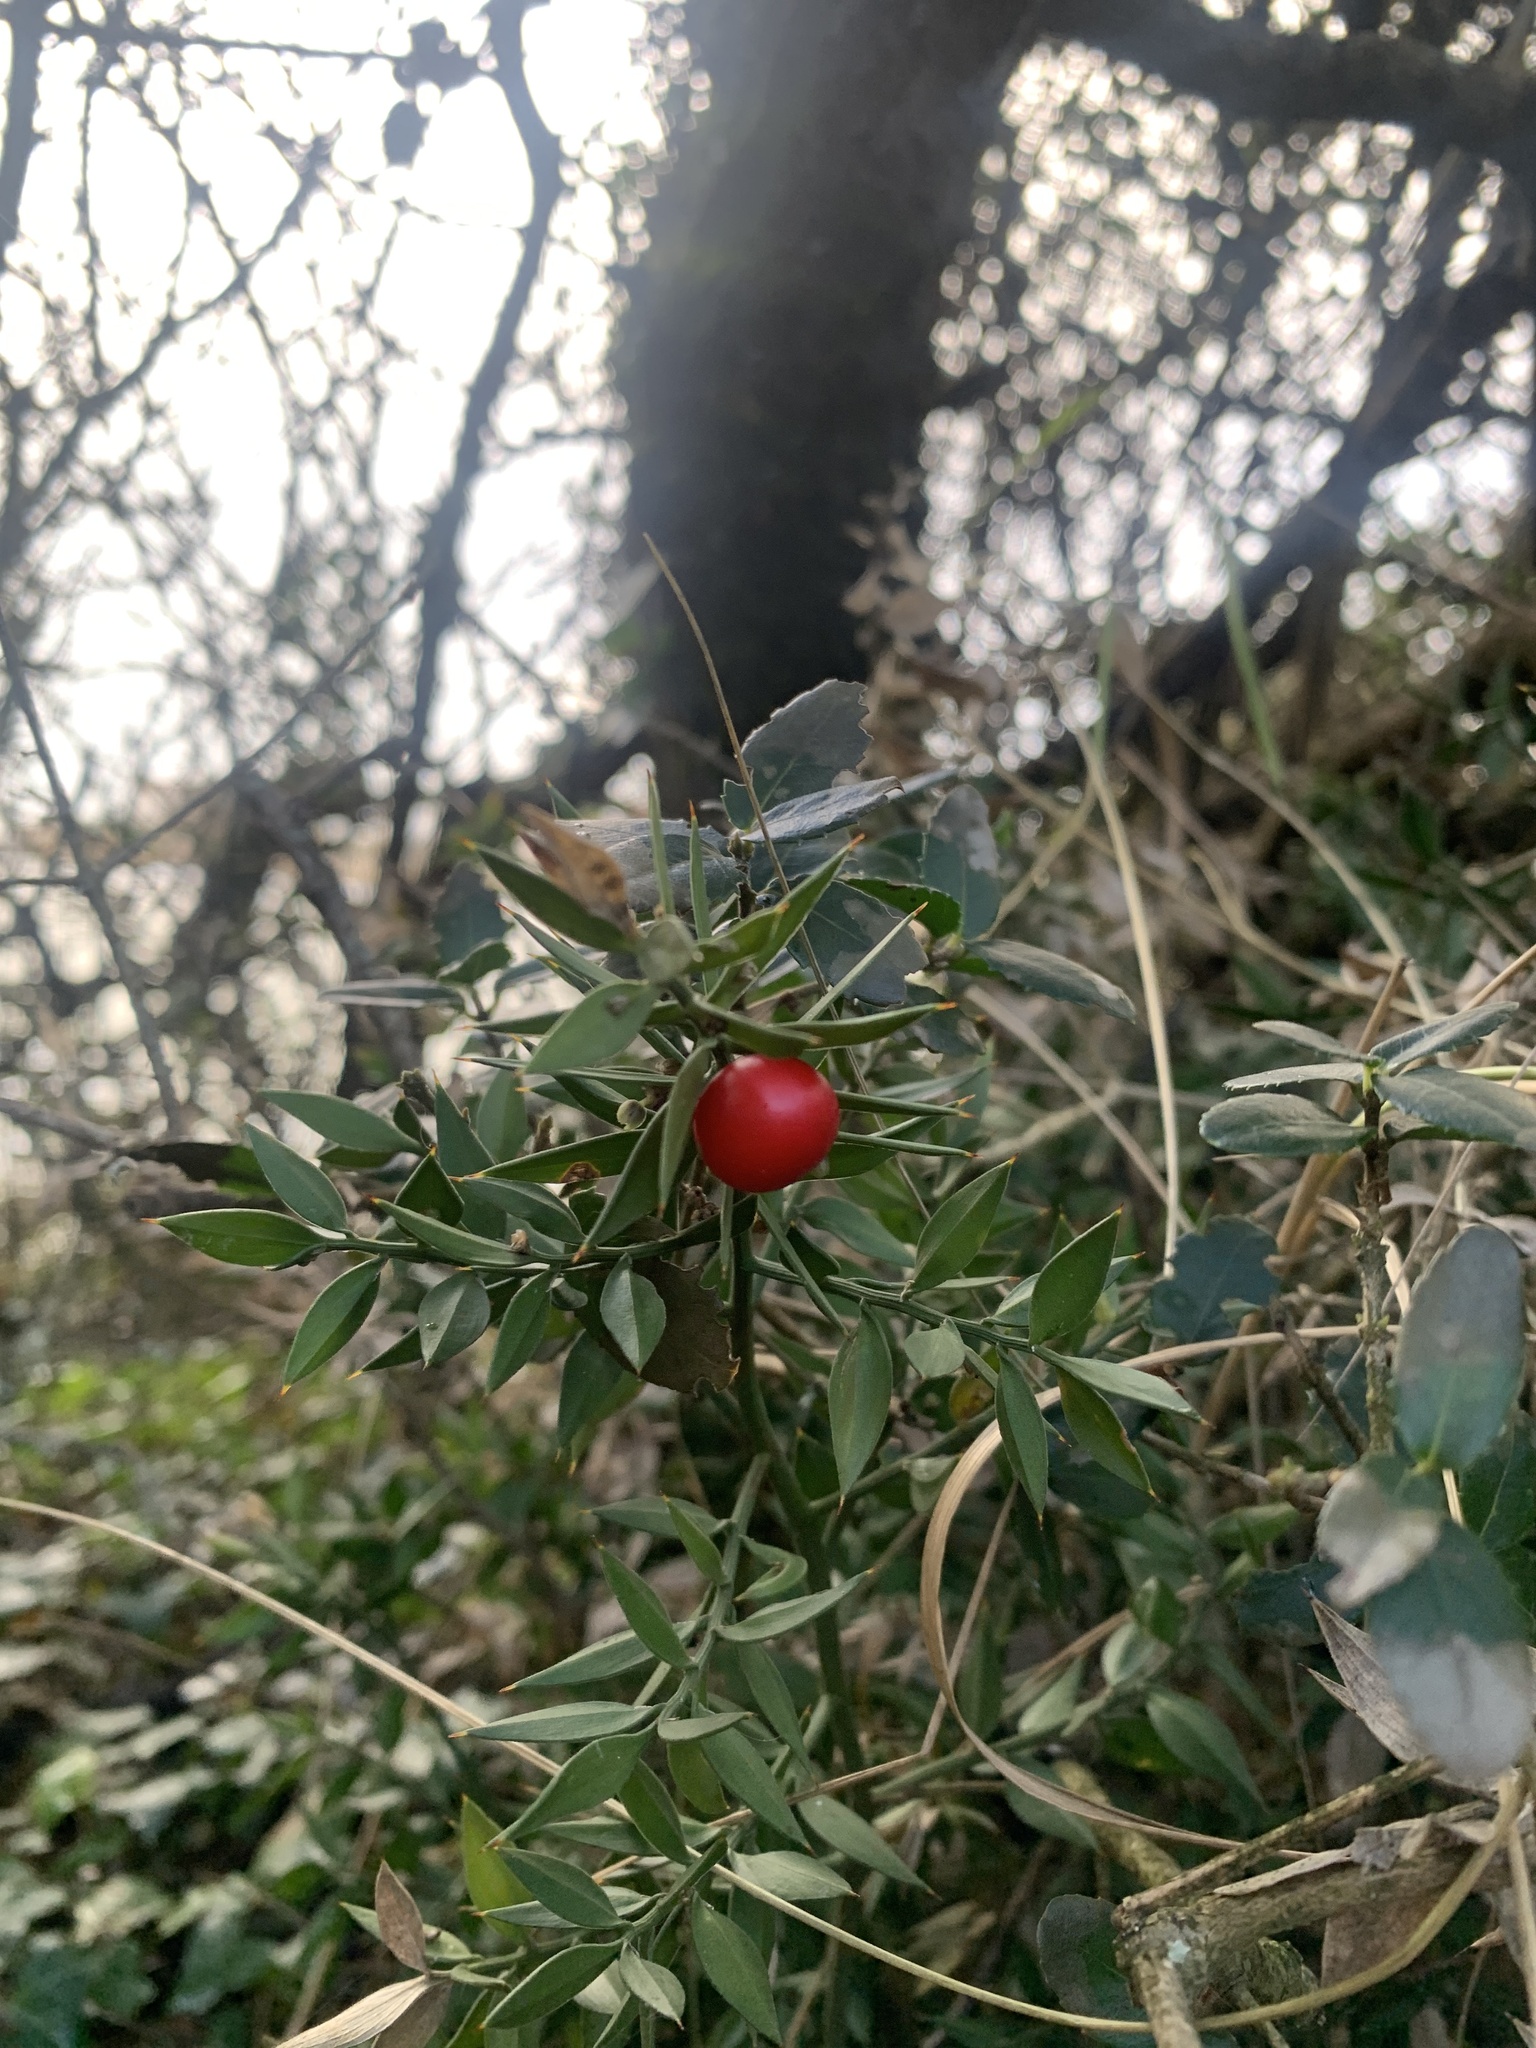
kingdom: Plantae
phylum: Tracheophyta
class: Liliopsida
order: Asparagales
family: Asparagaceae
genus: Ruscus
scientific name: Ruscus aculeatus
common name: Butcher's-broom
